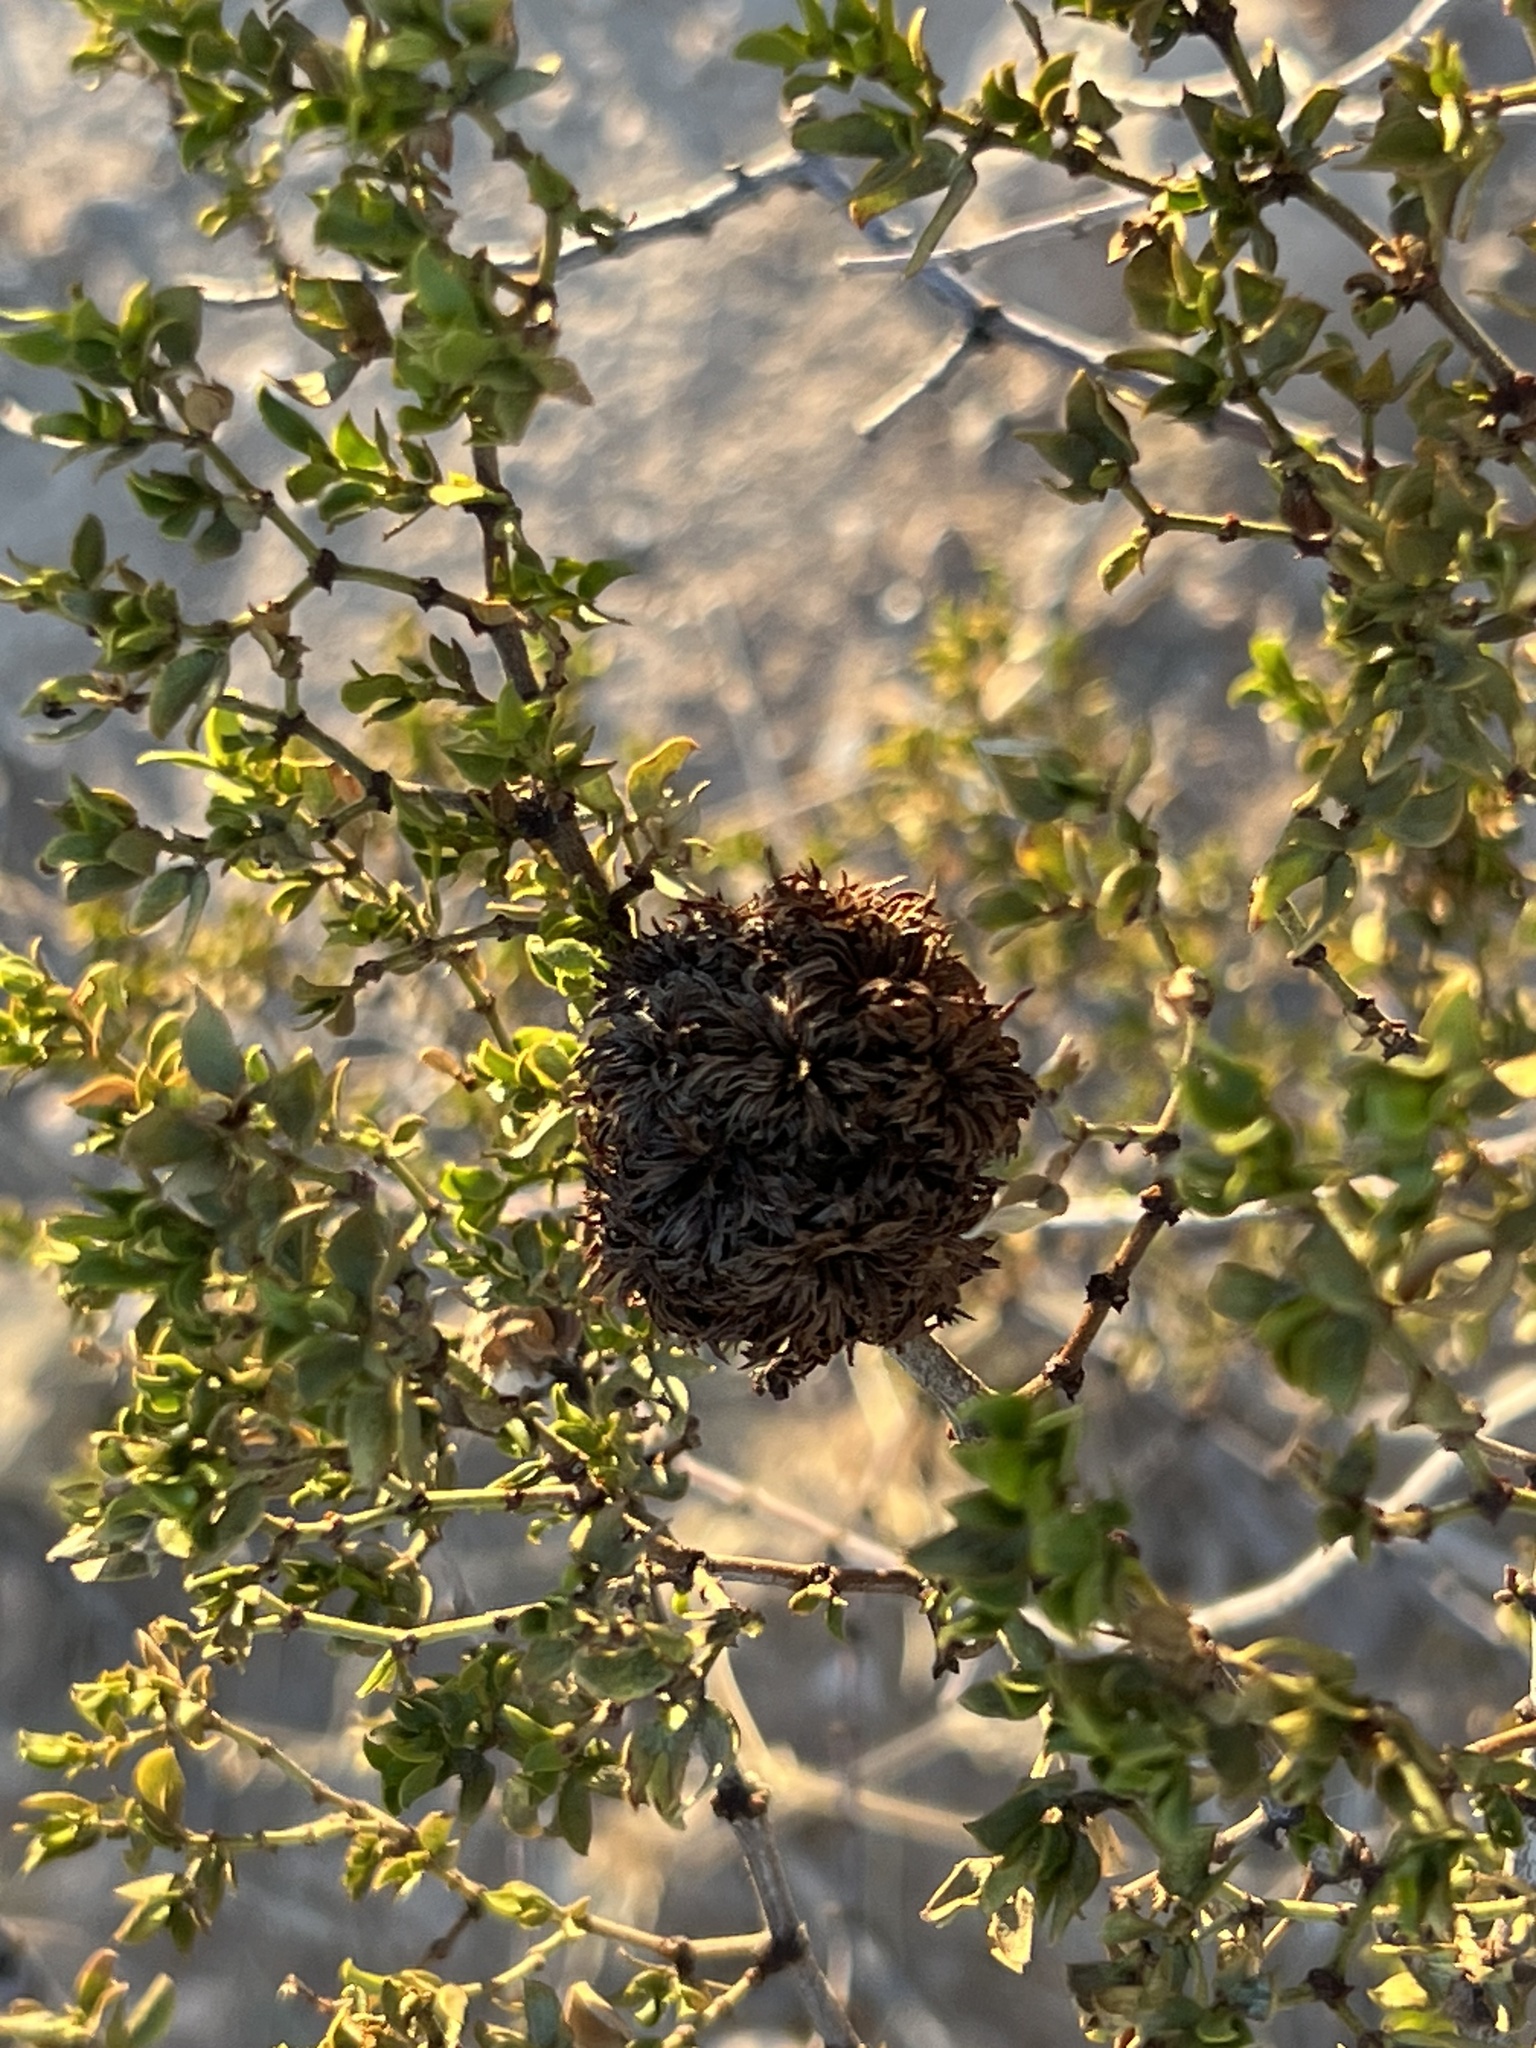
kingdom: Animalia
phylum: Arthropoda
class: Insecta
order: Diptera
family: Cecidomyiidae
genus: Asphondylia
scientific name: Asphondylia auripila
